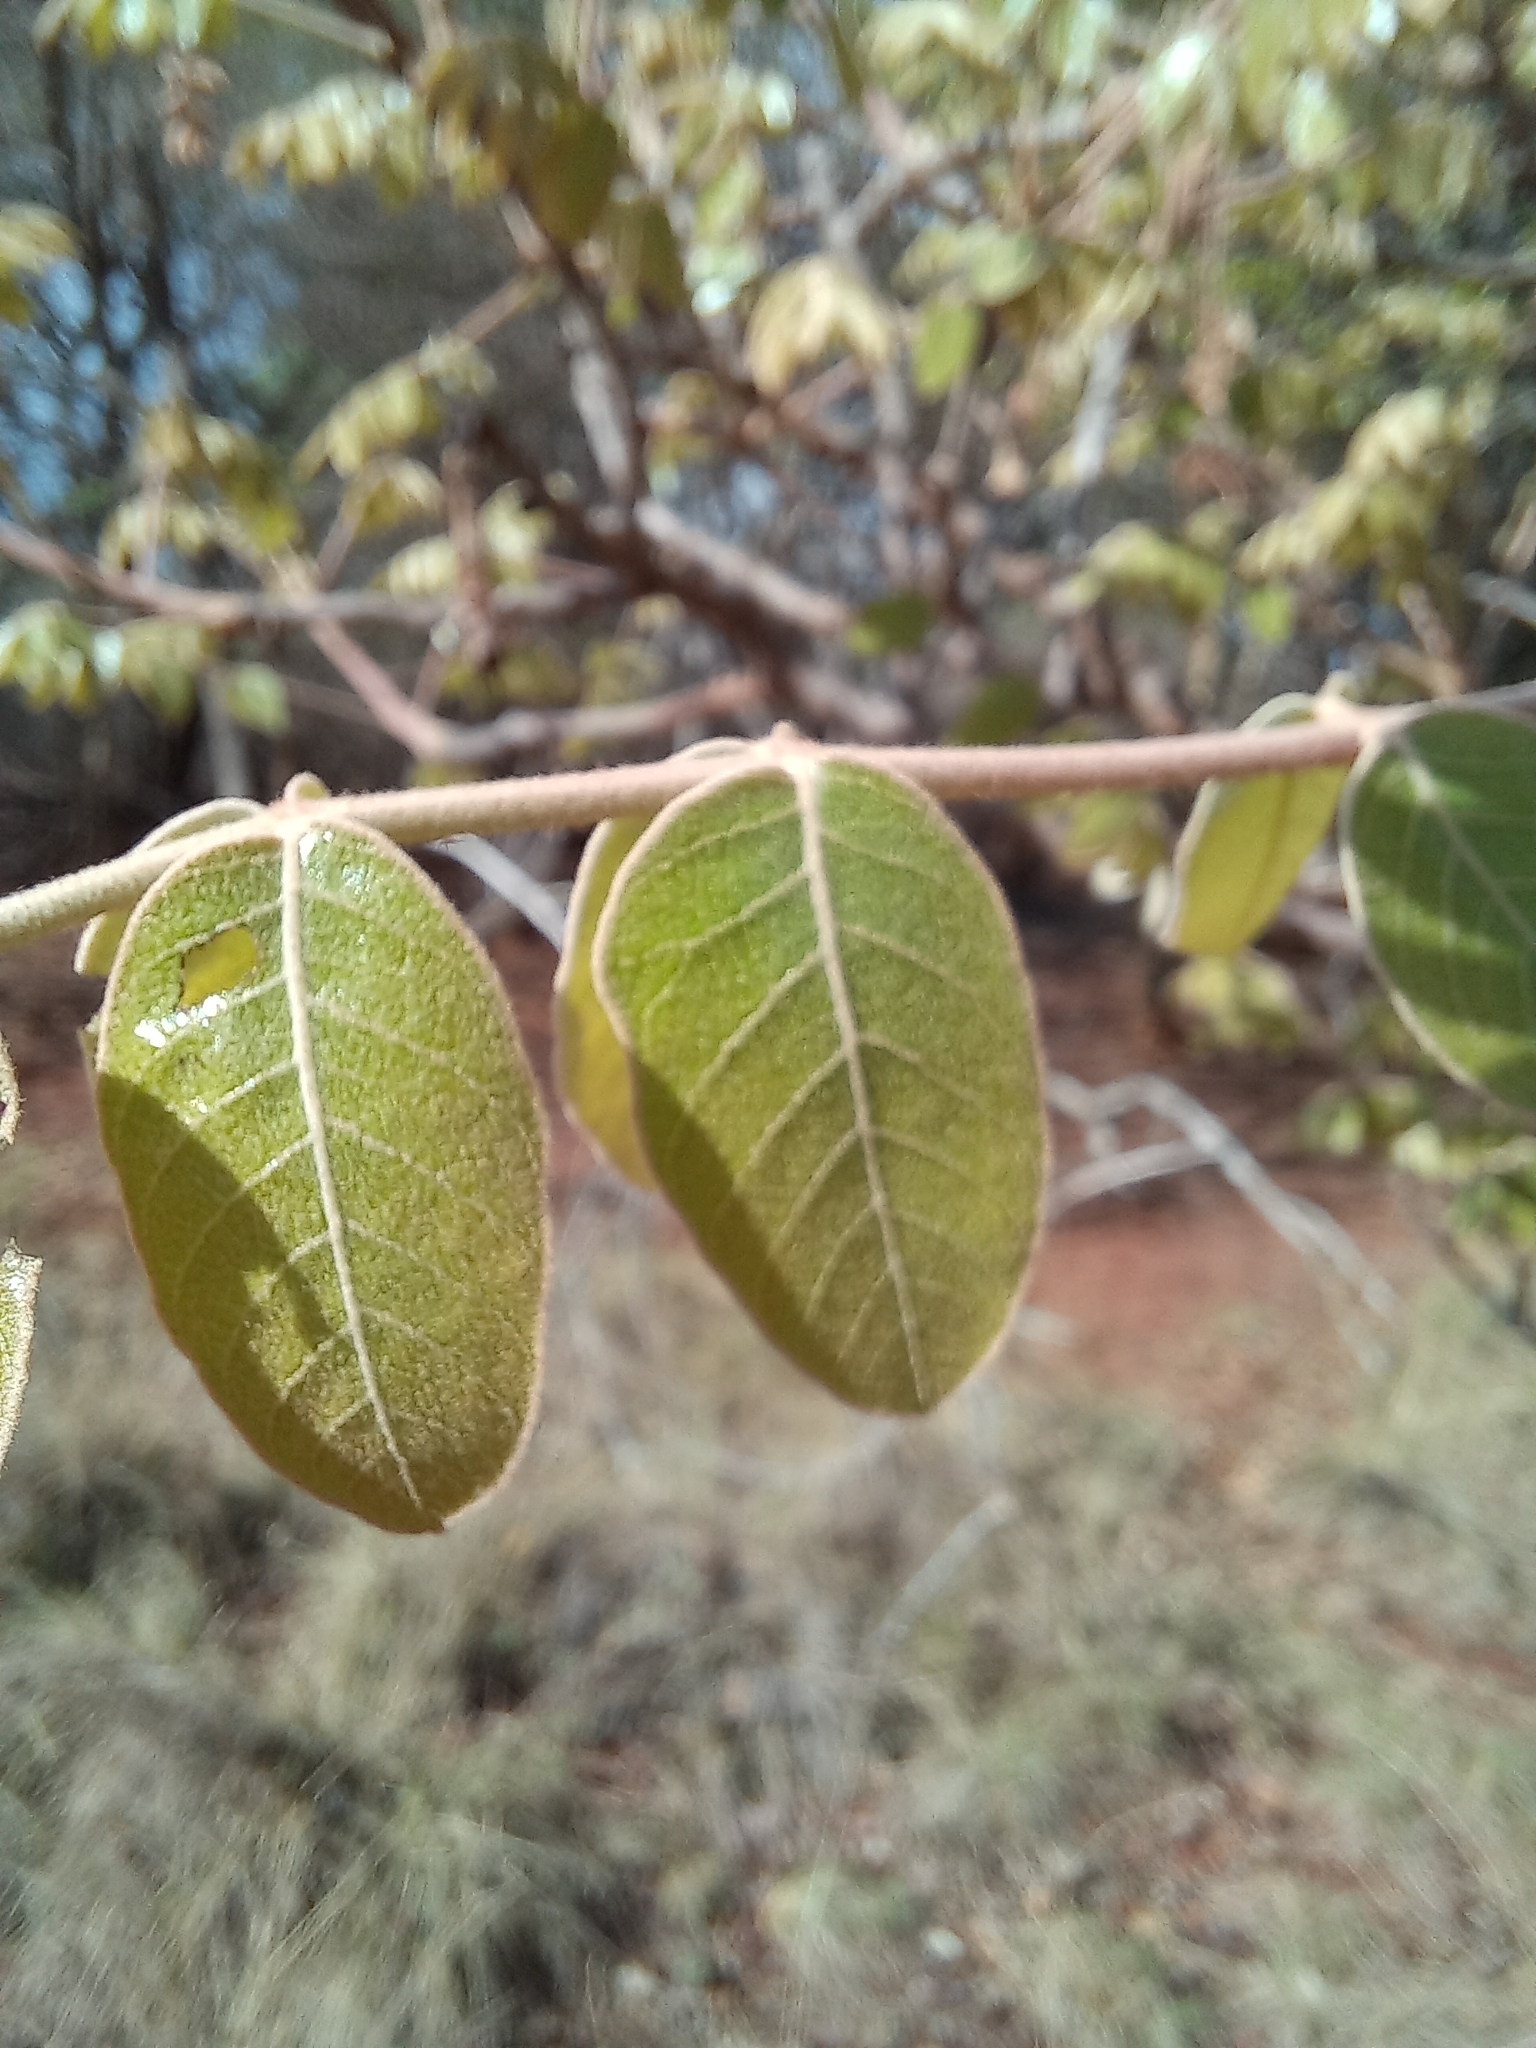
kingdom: Plantae
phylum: Tracheophyta
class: Magnoliopsida
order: Sapindales
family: Anacardiaceae
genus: Lannea
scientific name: Lannea discolor
